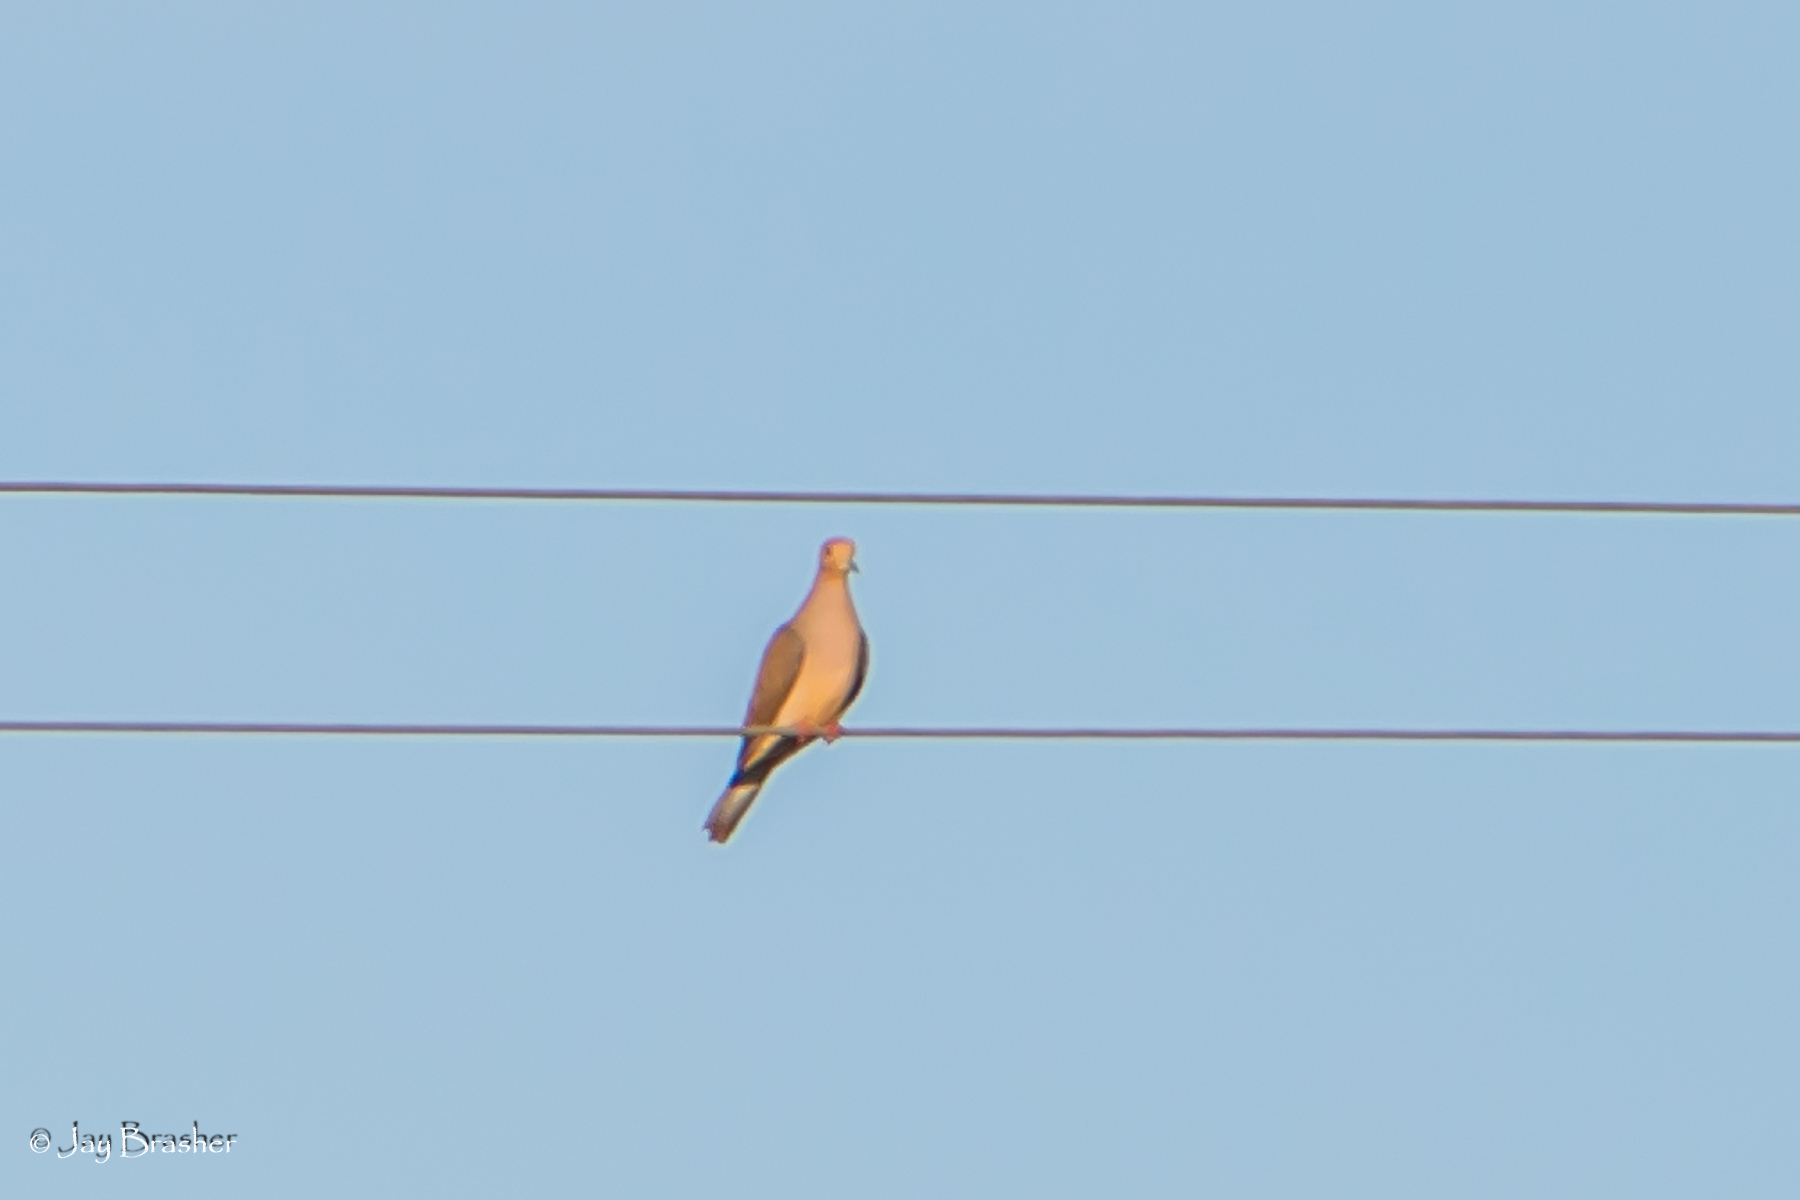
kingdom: Animalia
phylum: Chordata
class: Aves
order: Columbiformes
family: Columbidae
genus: Zenaida
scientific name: Zenaida macroura
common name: Mourning dove
